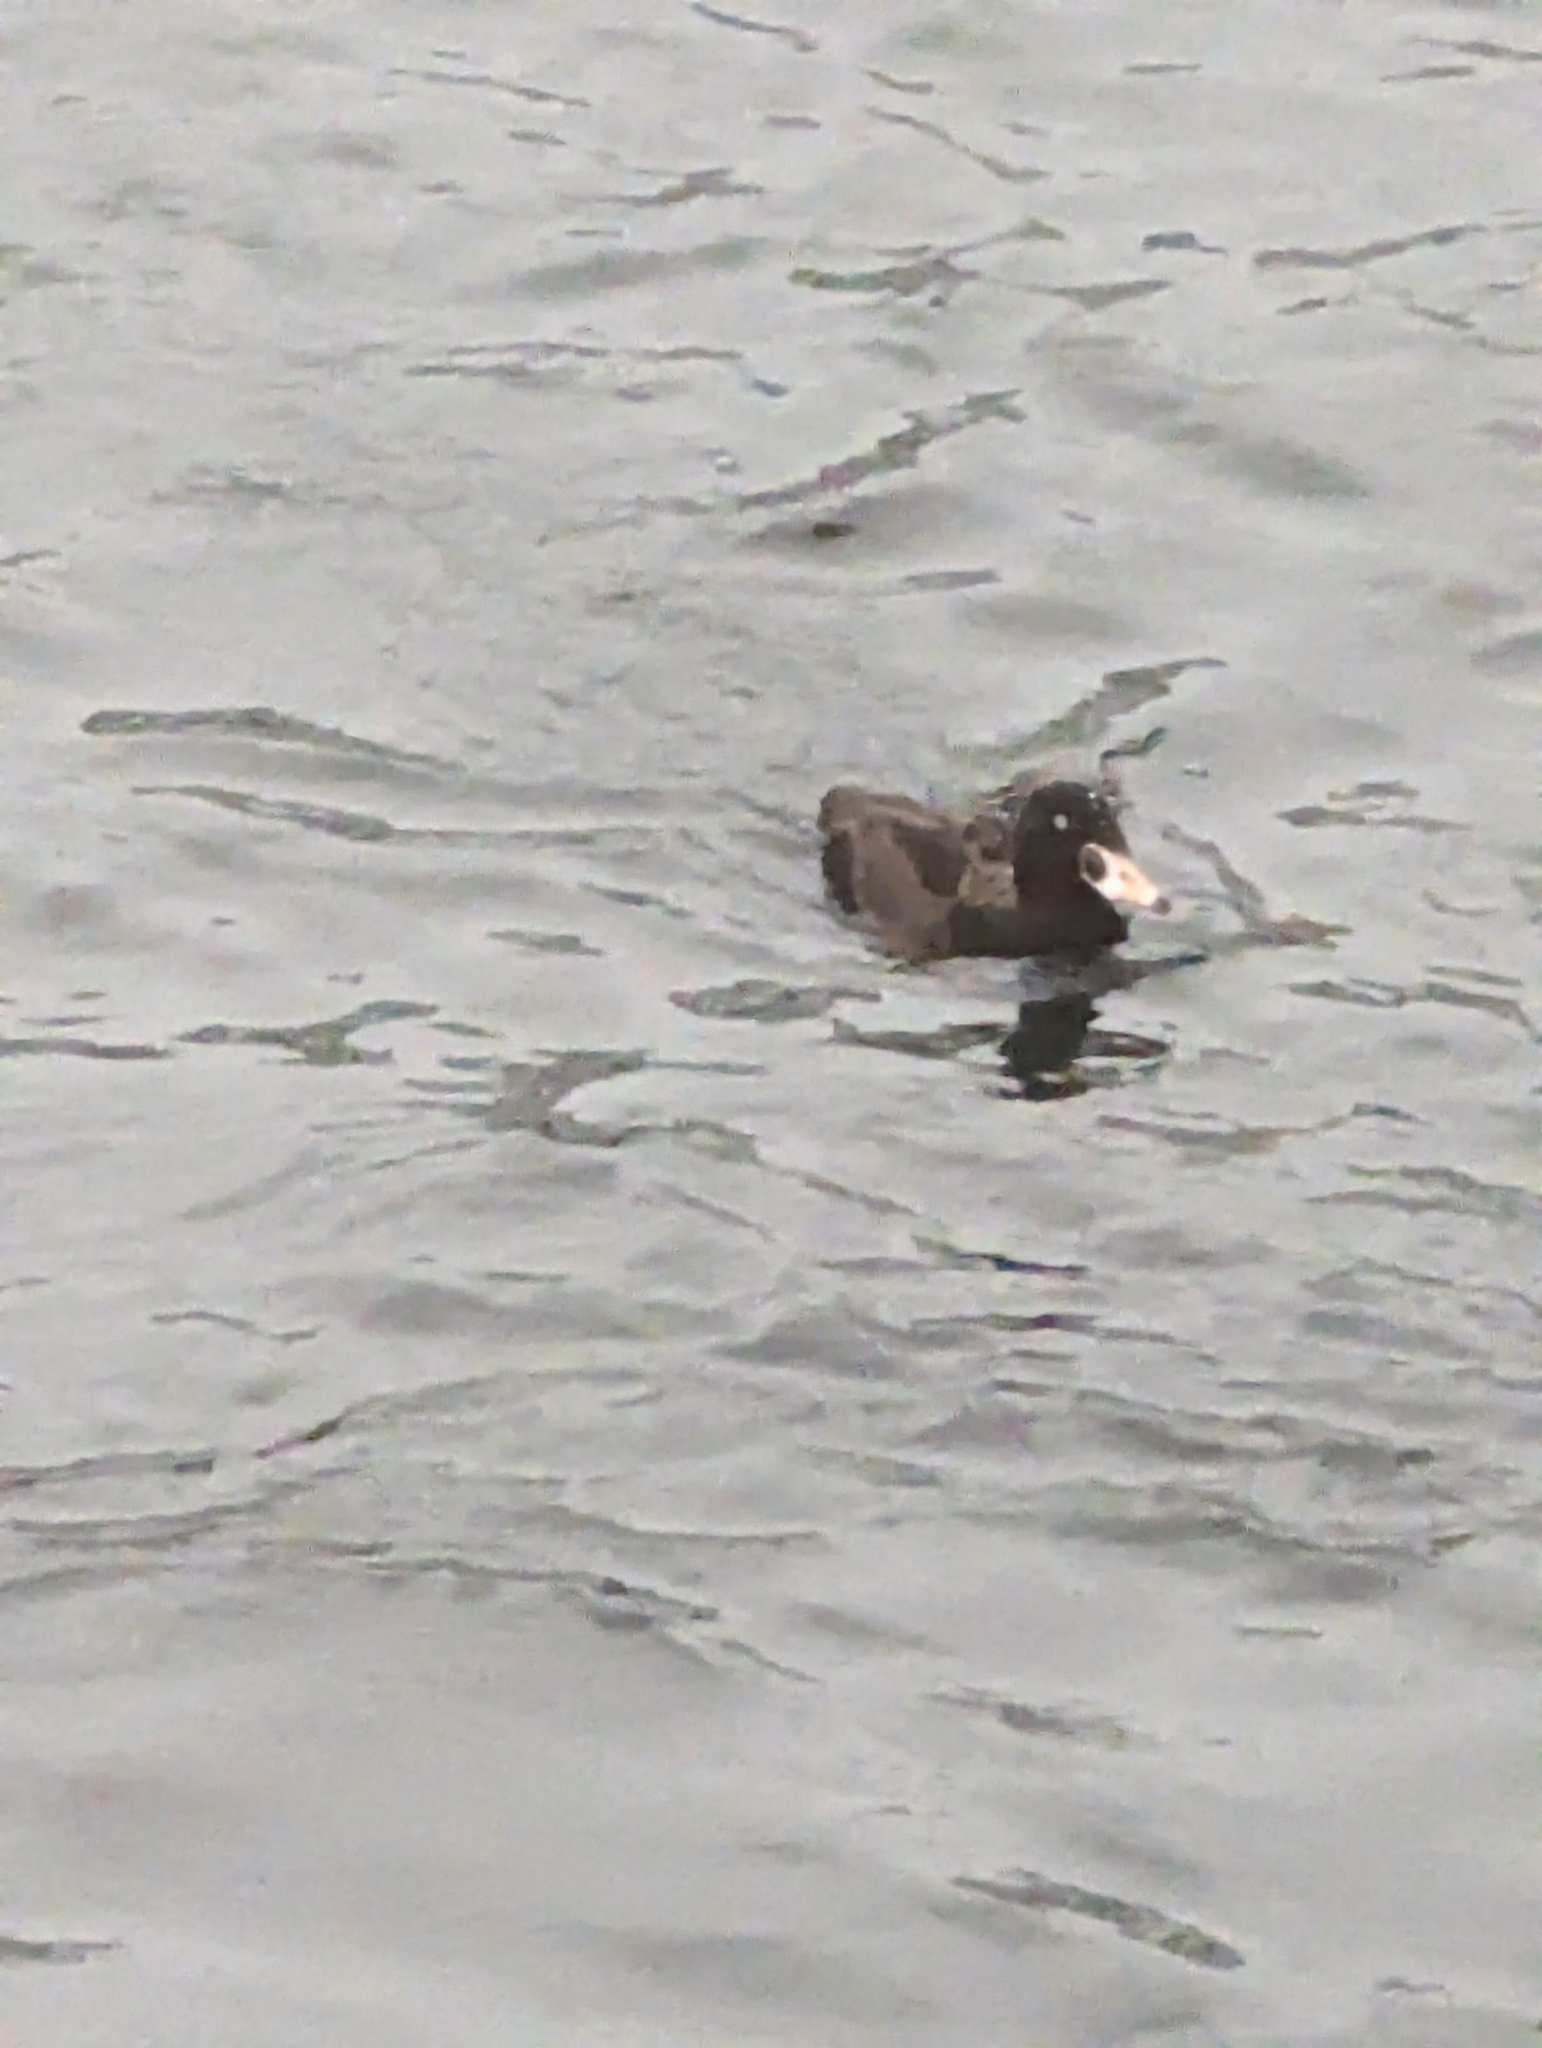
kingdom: Animalia
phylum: Chordata
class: Aves
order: Anseriformes
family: Anatidae
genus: Melanitta
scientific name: Melanitta perspicillata
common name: Surf scoter
